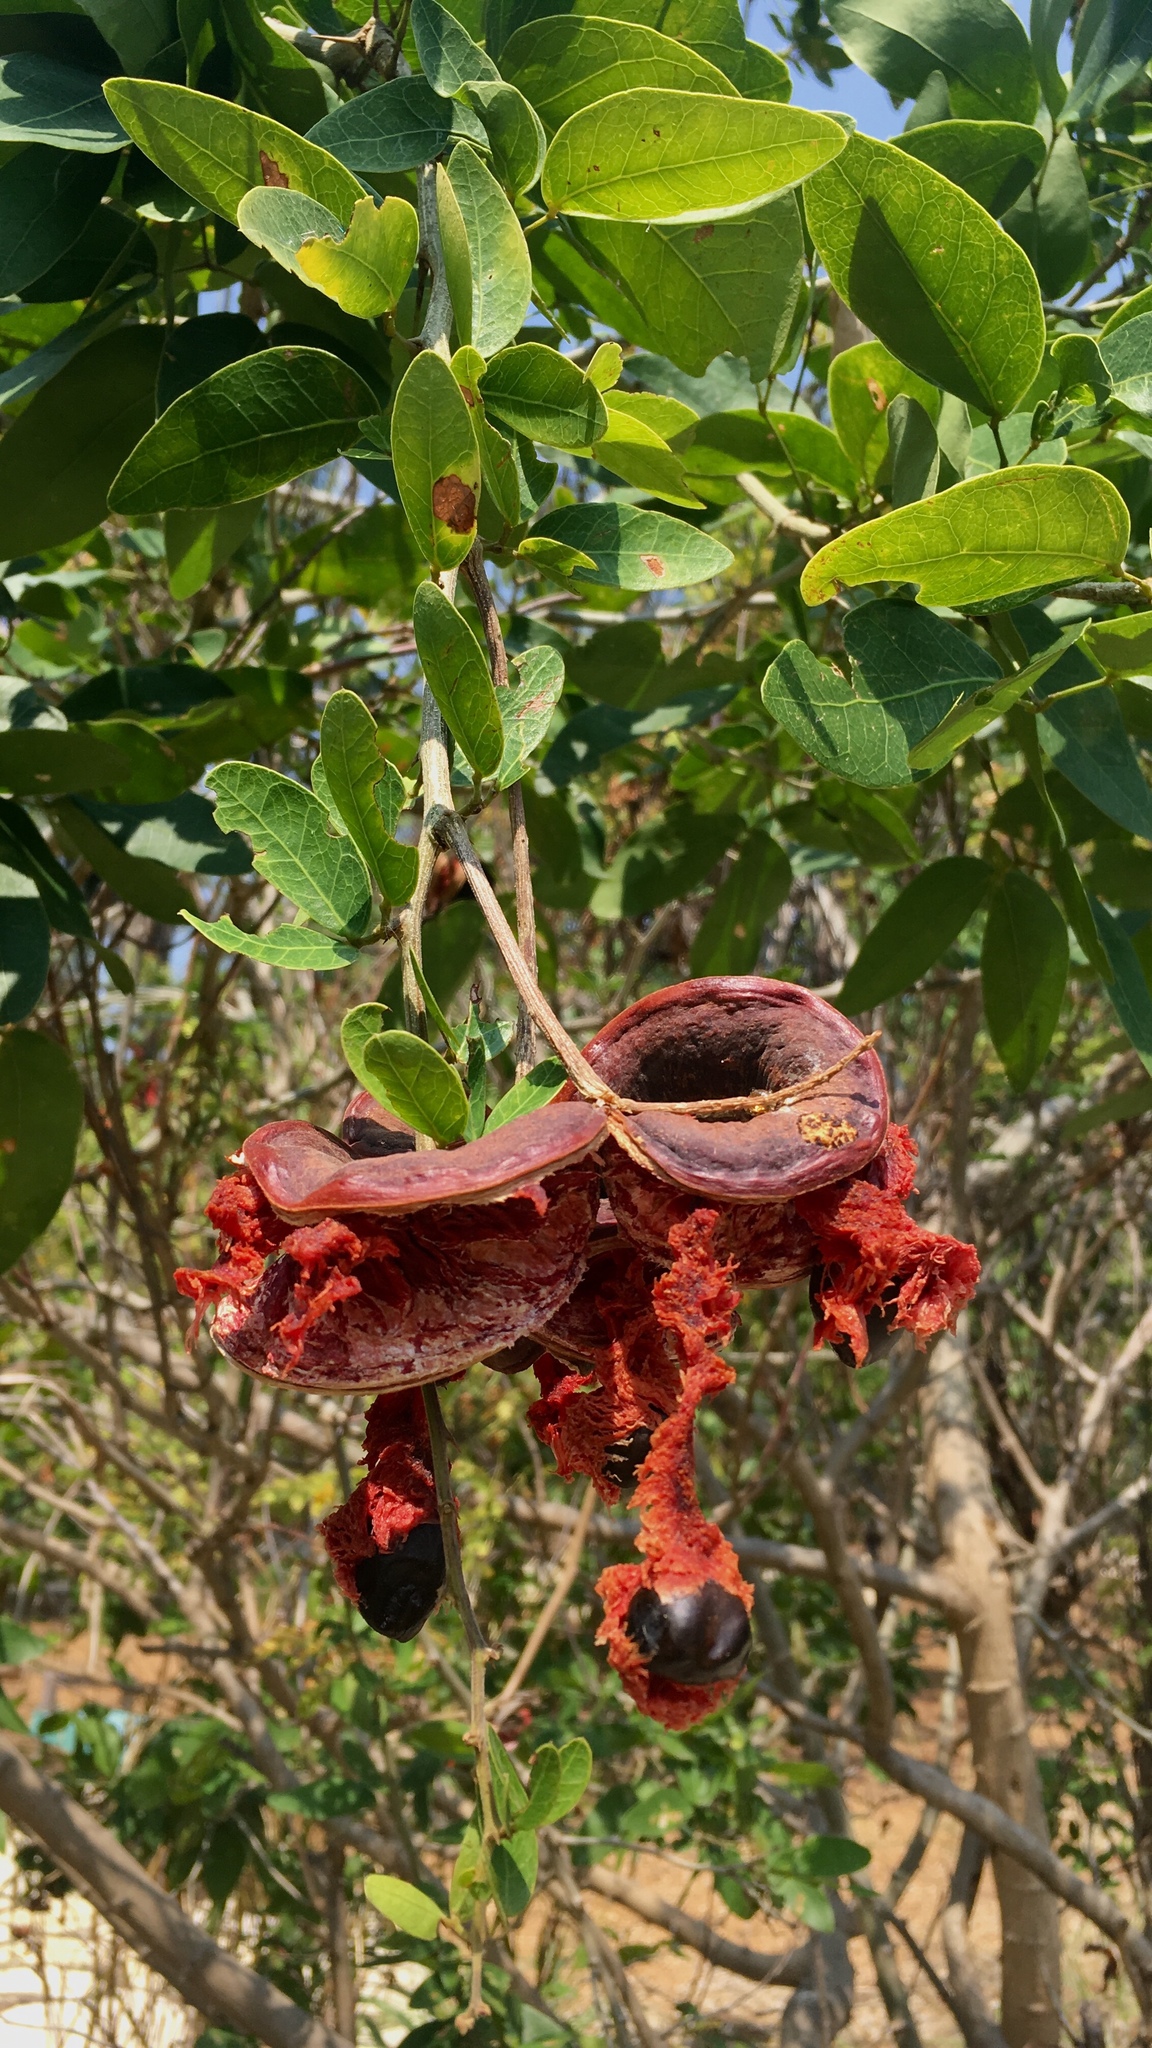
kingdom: Plantae
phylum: Tracheophyta
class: Magnoliopsida
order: Fabales
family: Fabaceae
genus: Pithecellobium
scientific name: Pithecellobium lanceolatum
